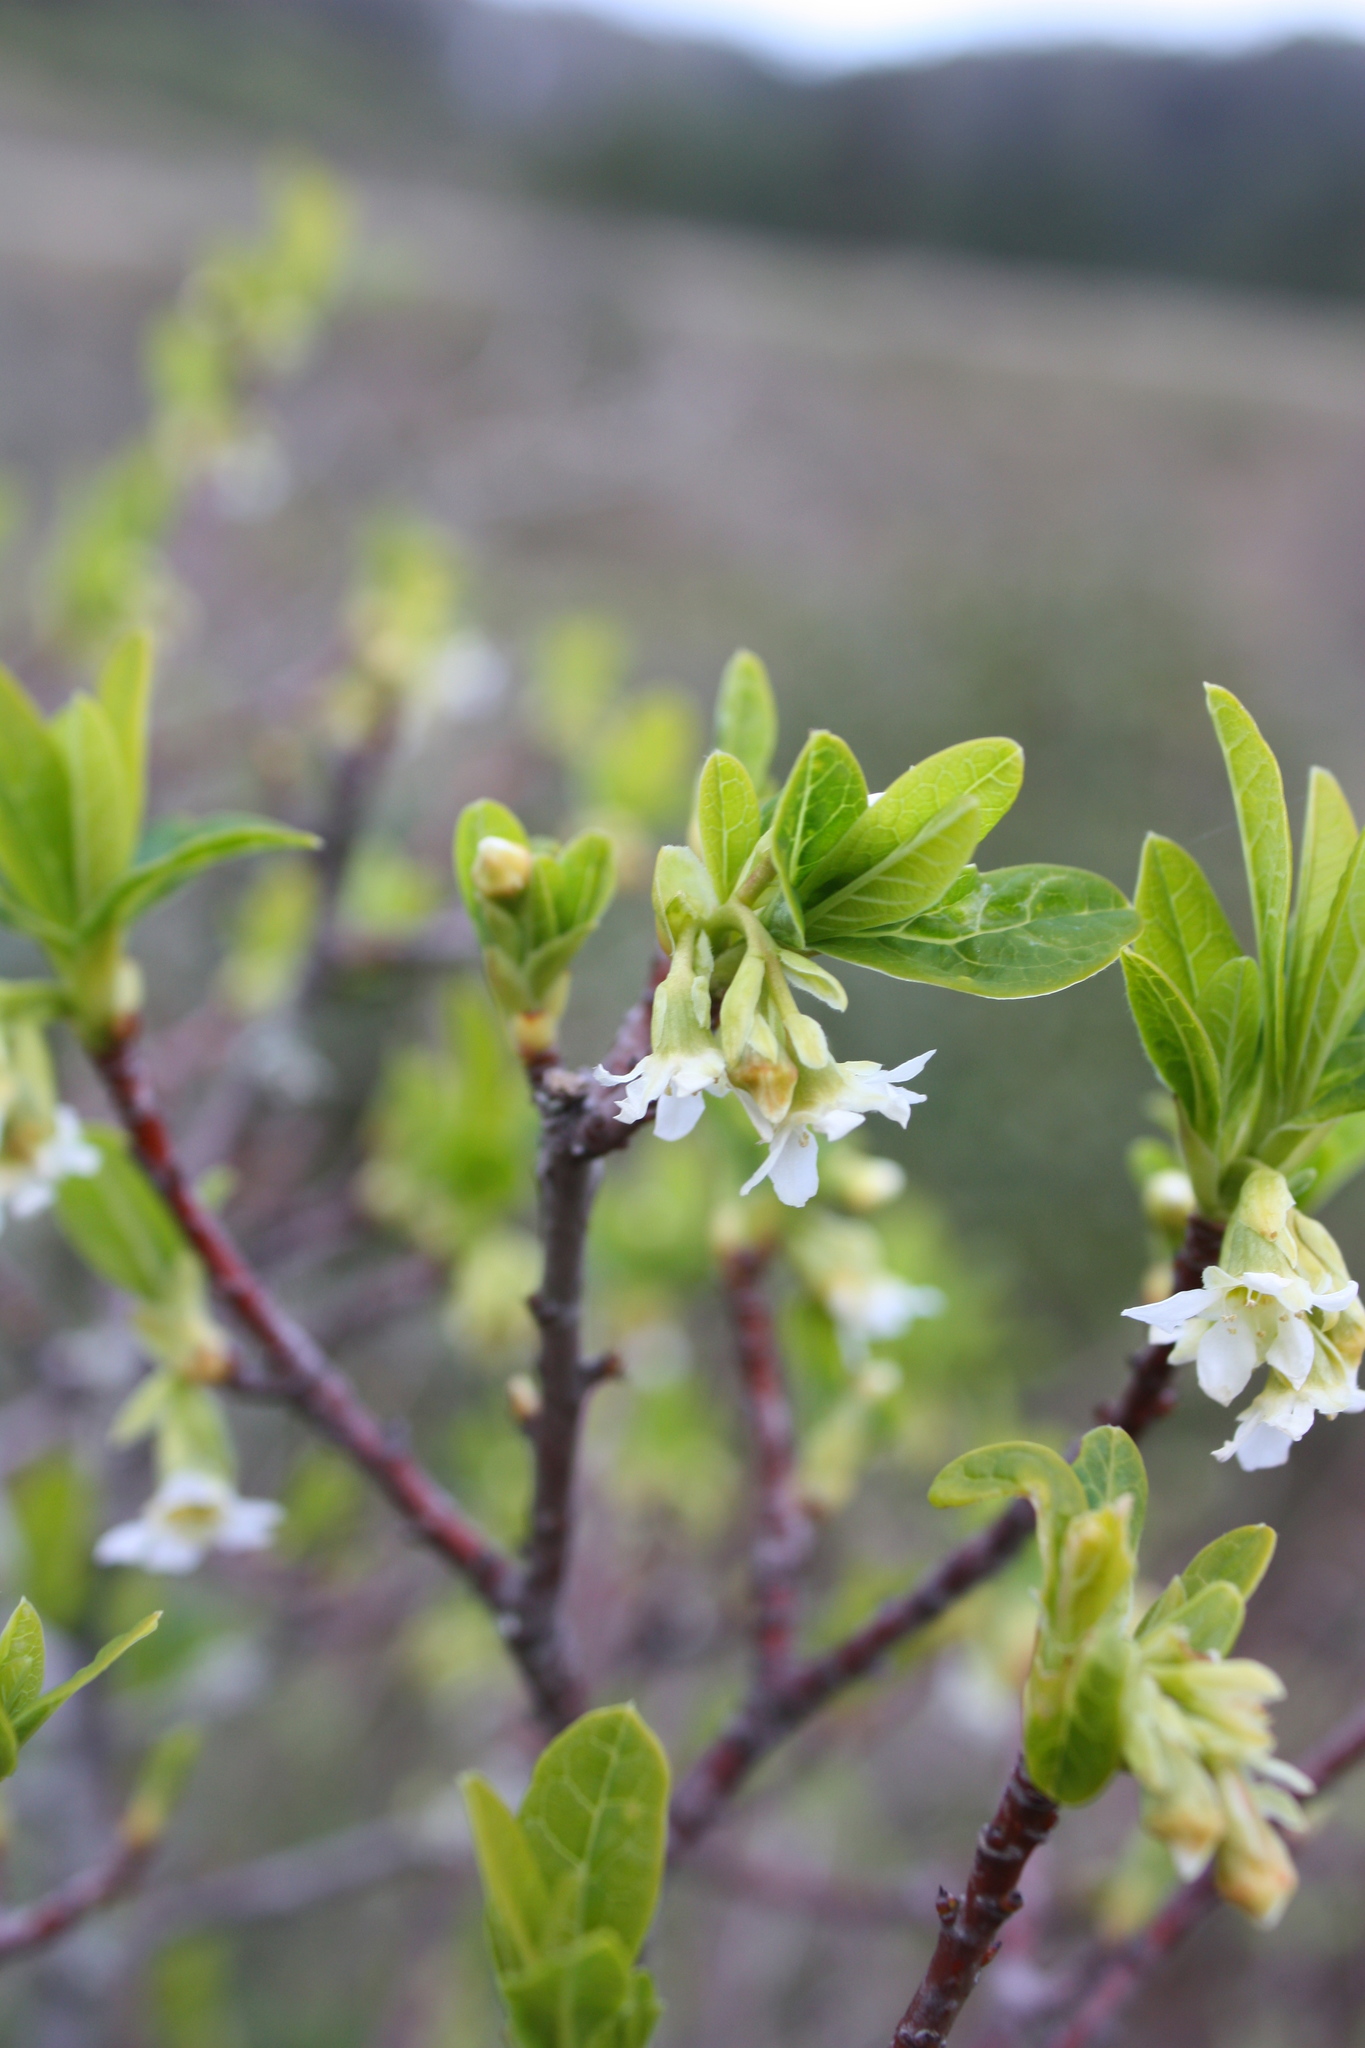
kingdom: Plantae
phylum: Tracheophyta
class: Magnoliopsida
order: Rosales
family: Rosaceae
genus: Oemleria
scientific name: Oemleria cerasiformis
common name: Osoberry
